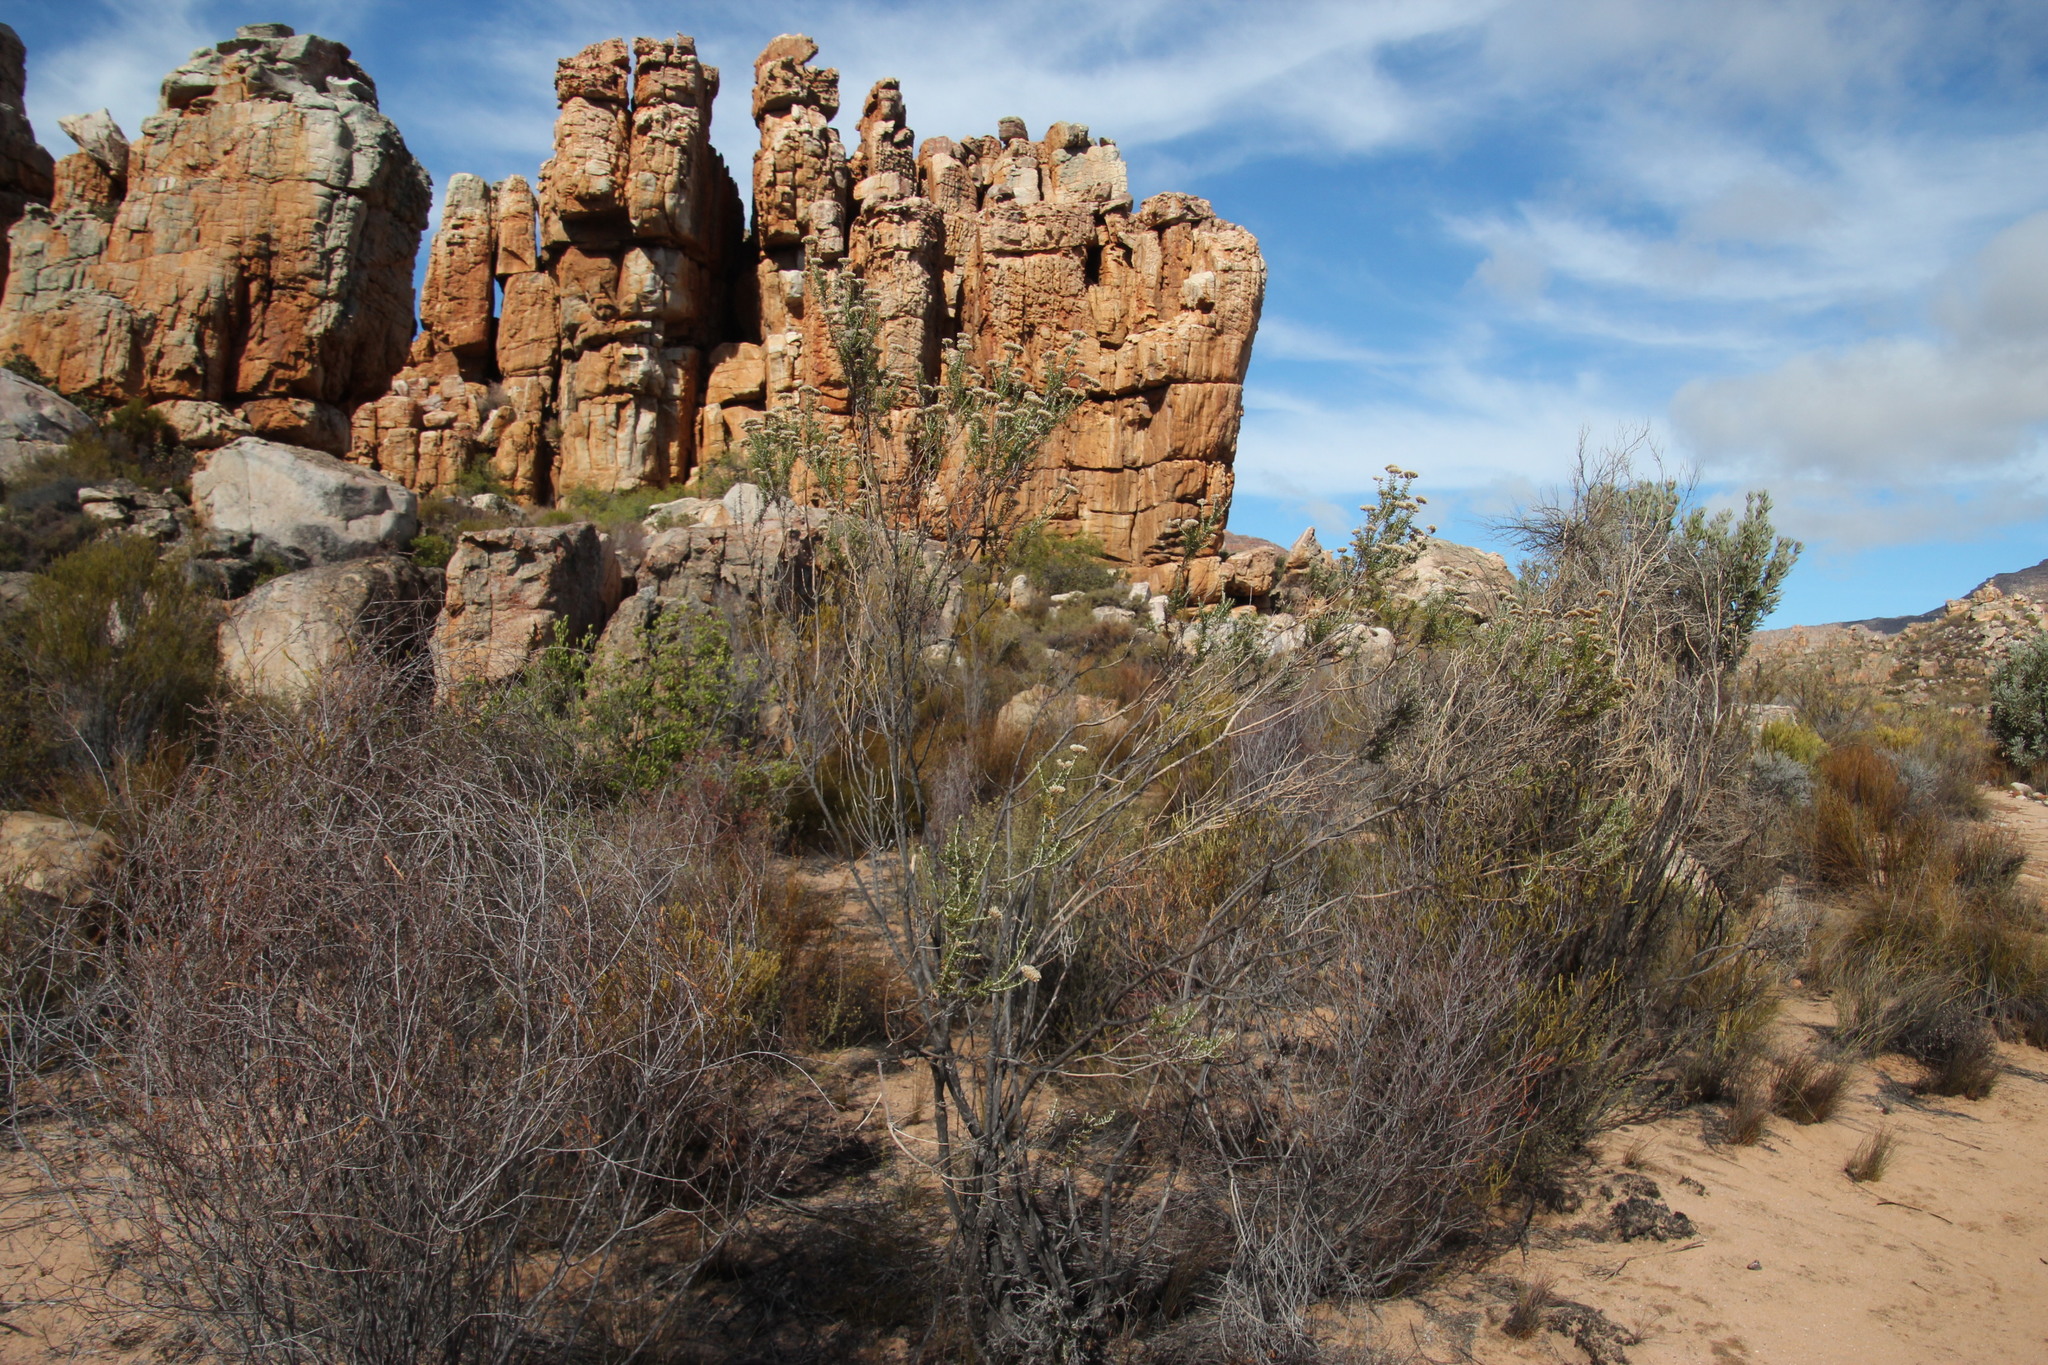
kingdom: Plantae
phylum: Tracheophyta
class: Magnoliopsida
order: Asterales
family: Asteraceae
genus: Metalasia
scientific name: Metalasia densa
